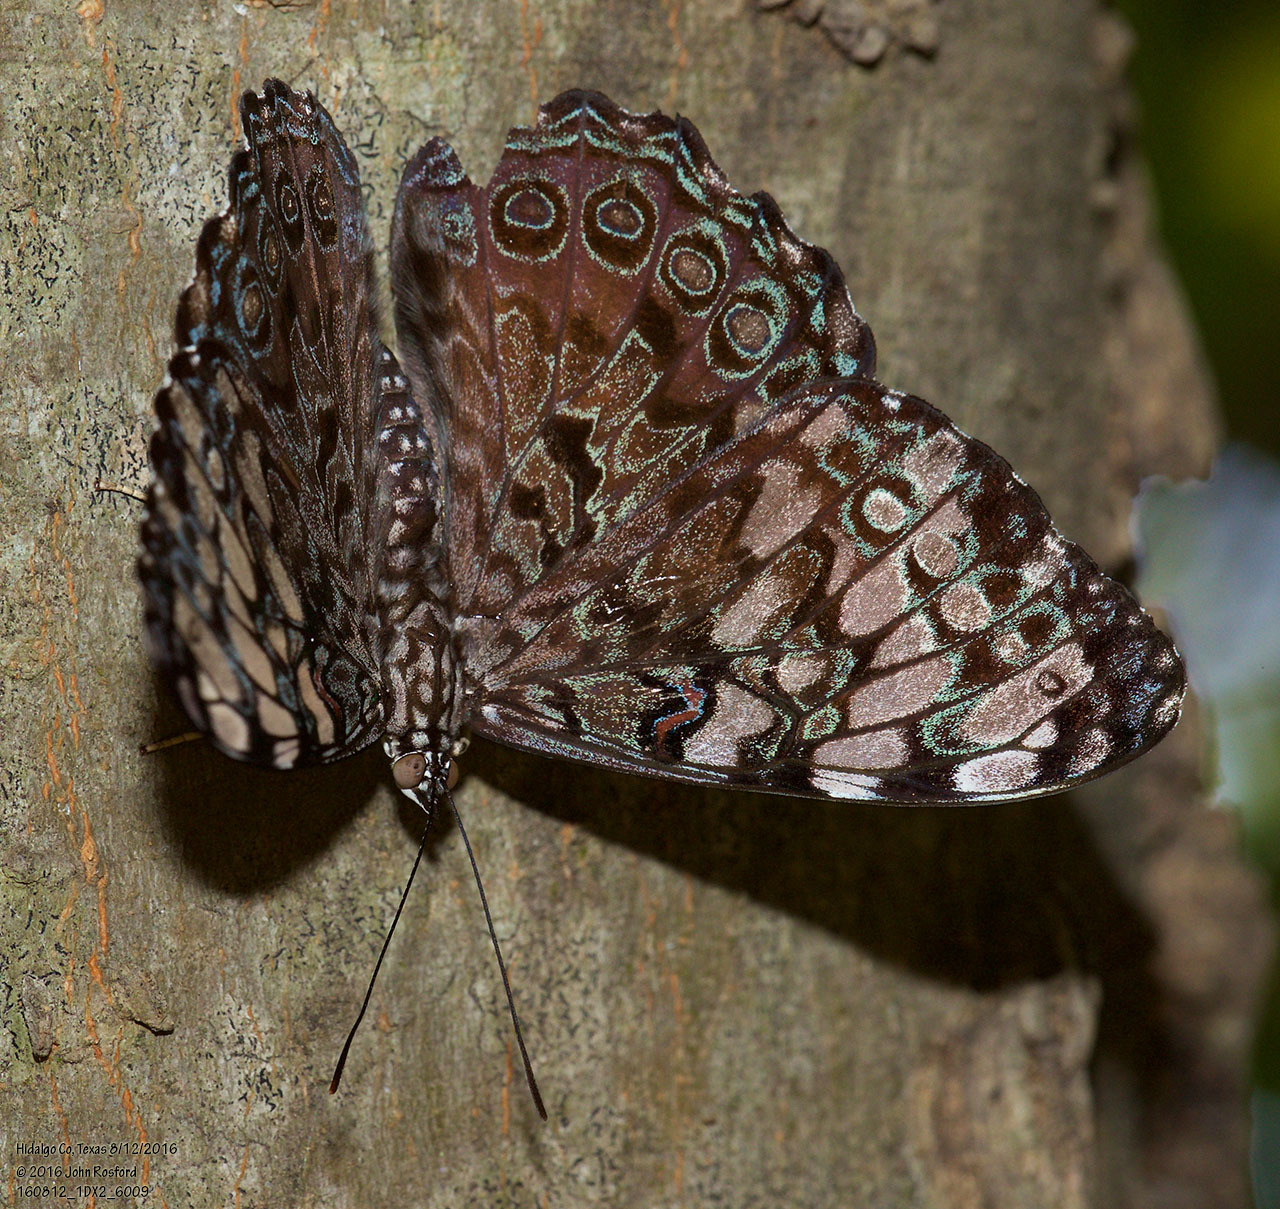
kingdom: Animalia
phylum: Arthropoda
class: Insecta
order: Lepidoptera
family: Nymphalidae
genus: Hamadryas
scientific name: Hamadryas guatemalena
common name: Guatemalan cracker
